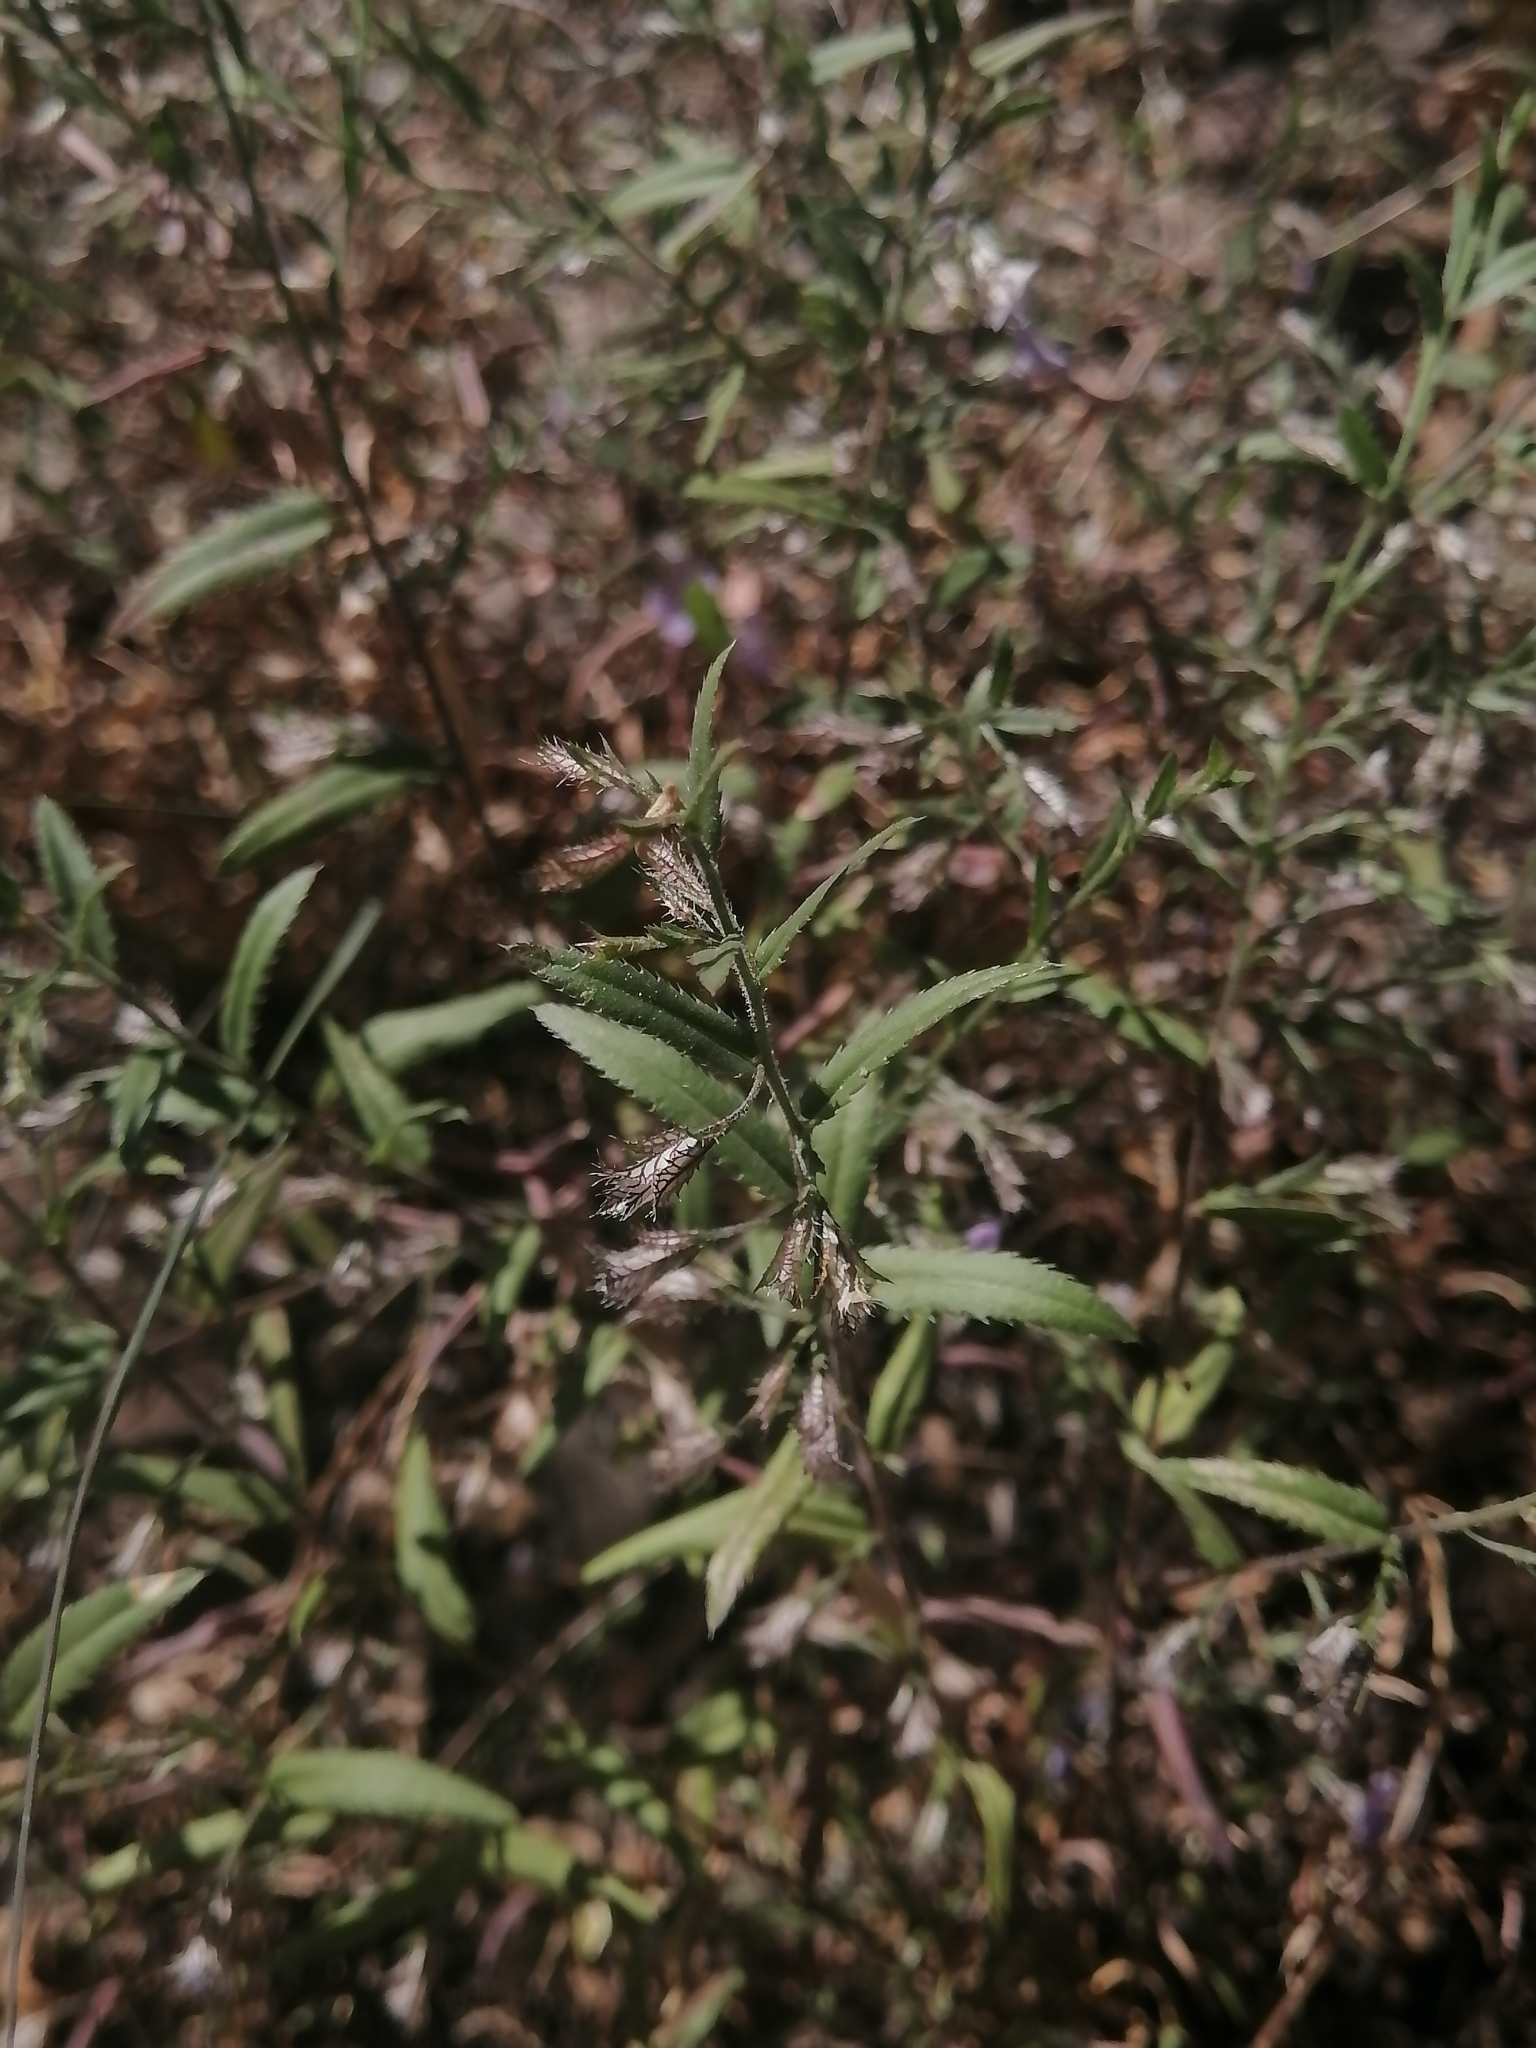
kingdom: Plantae
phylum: Tracheophyta
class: Magnoliopsida
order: Ericales
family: Polemoniaceae
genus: Loeselia
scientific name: Loeselia coerulea
